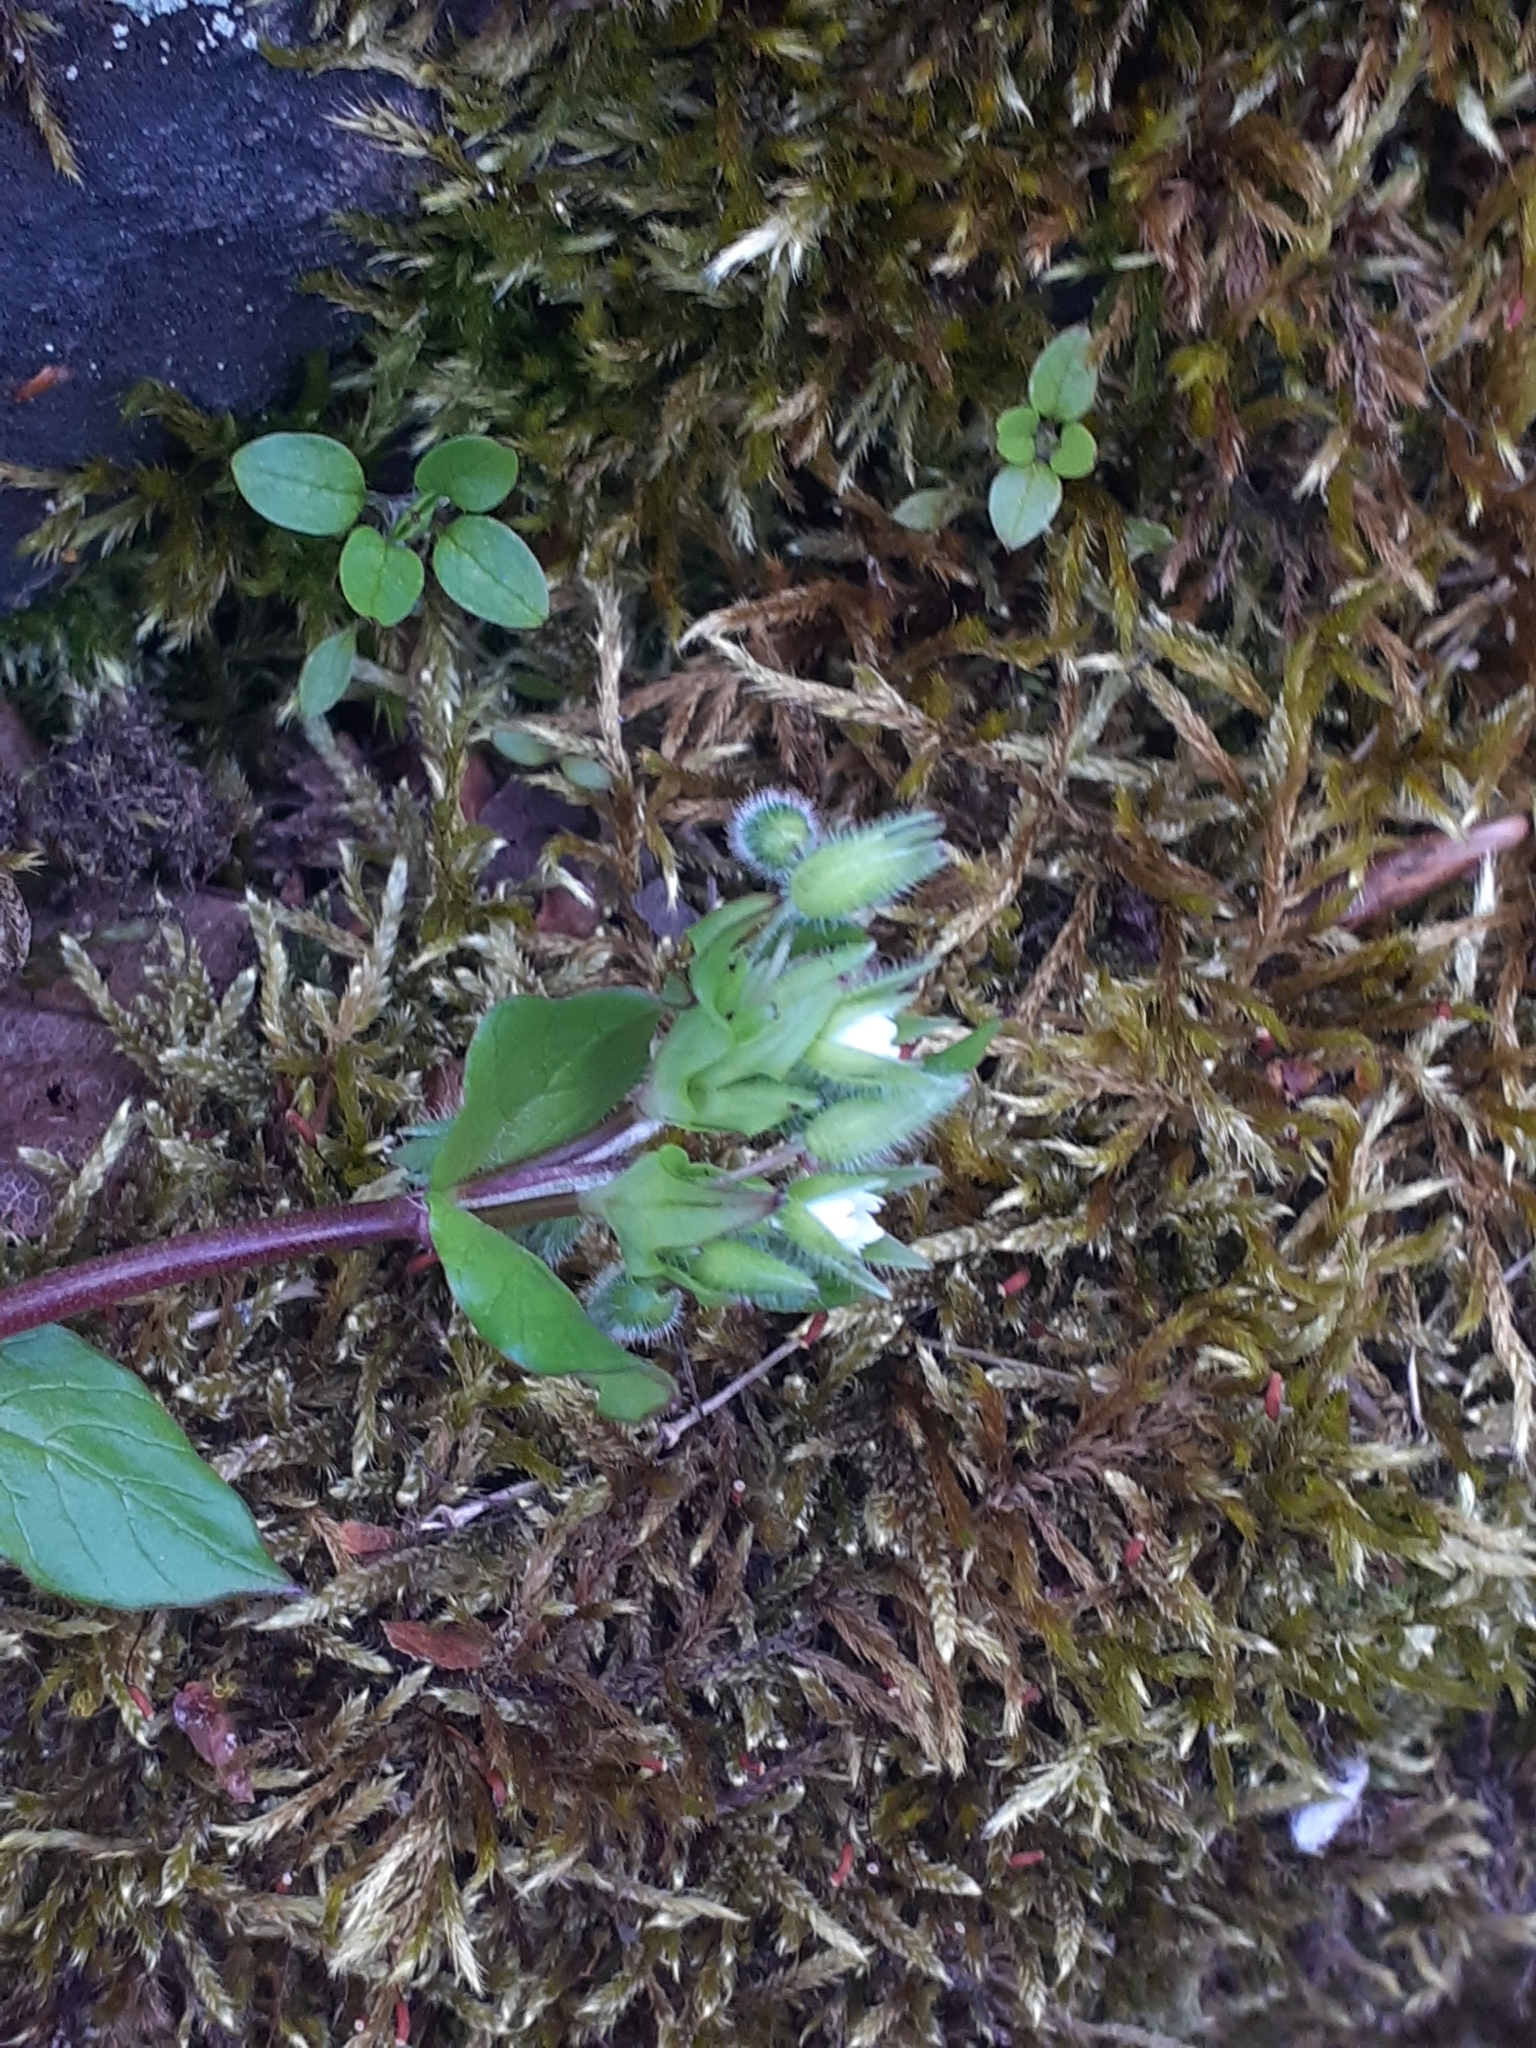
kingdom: Plantae
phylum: Tracheophyta
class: Magnoliopsida
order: Caryophyllales
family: Caryophyllaceae
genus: Stellaria
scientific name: Stellaria media
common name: Common chickweed
